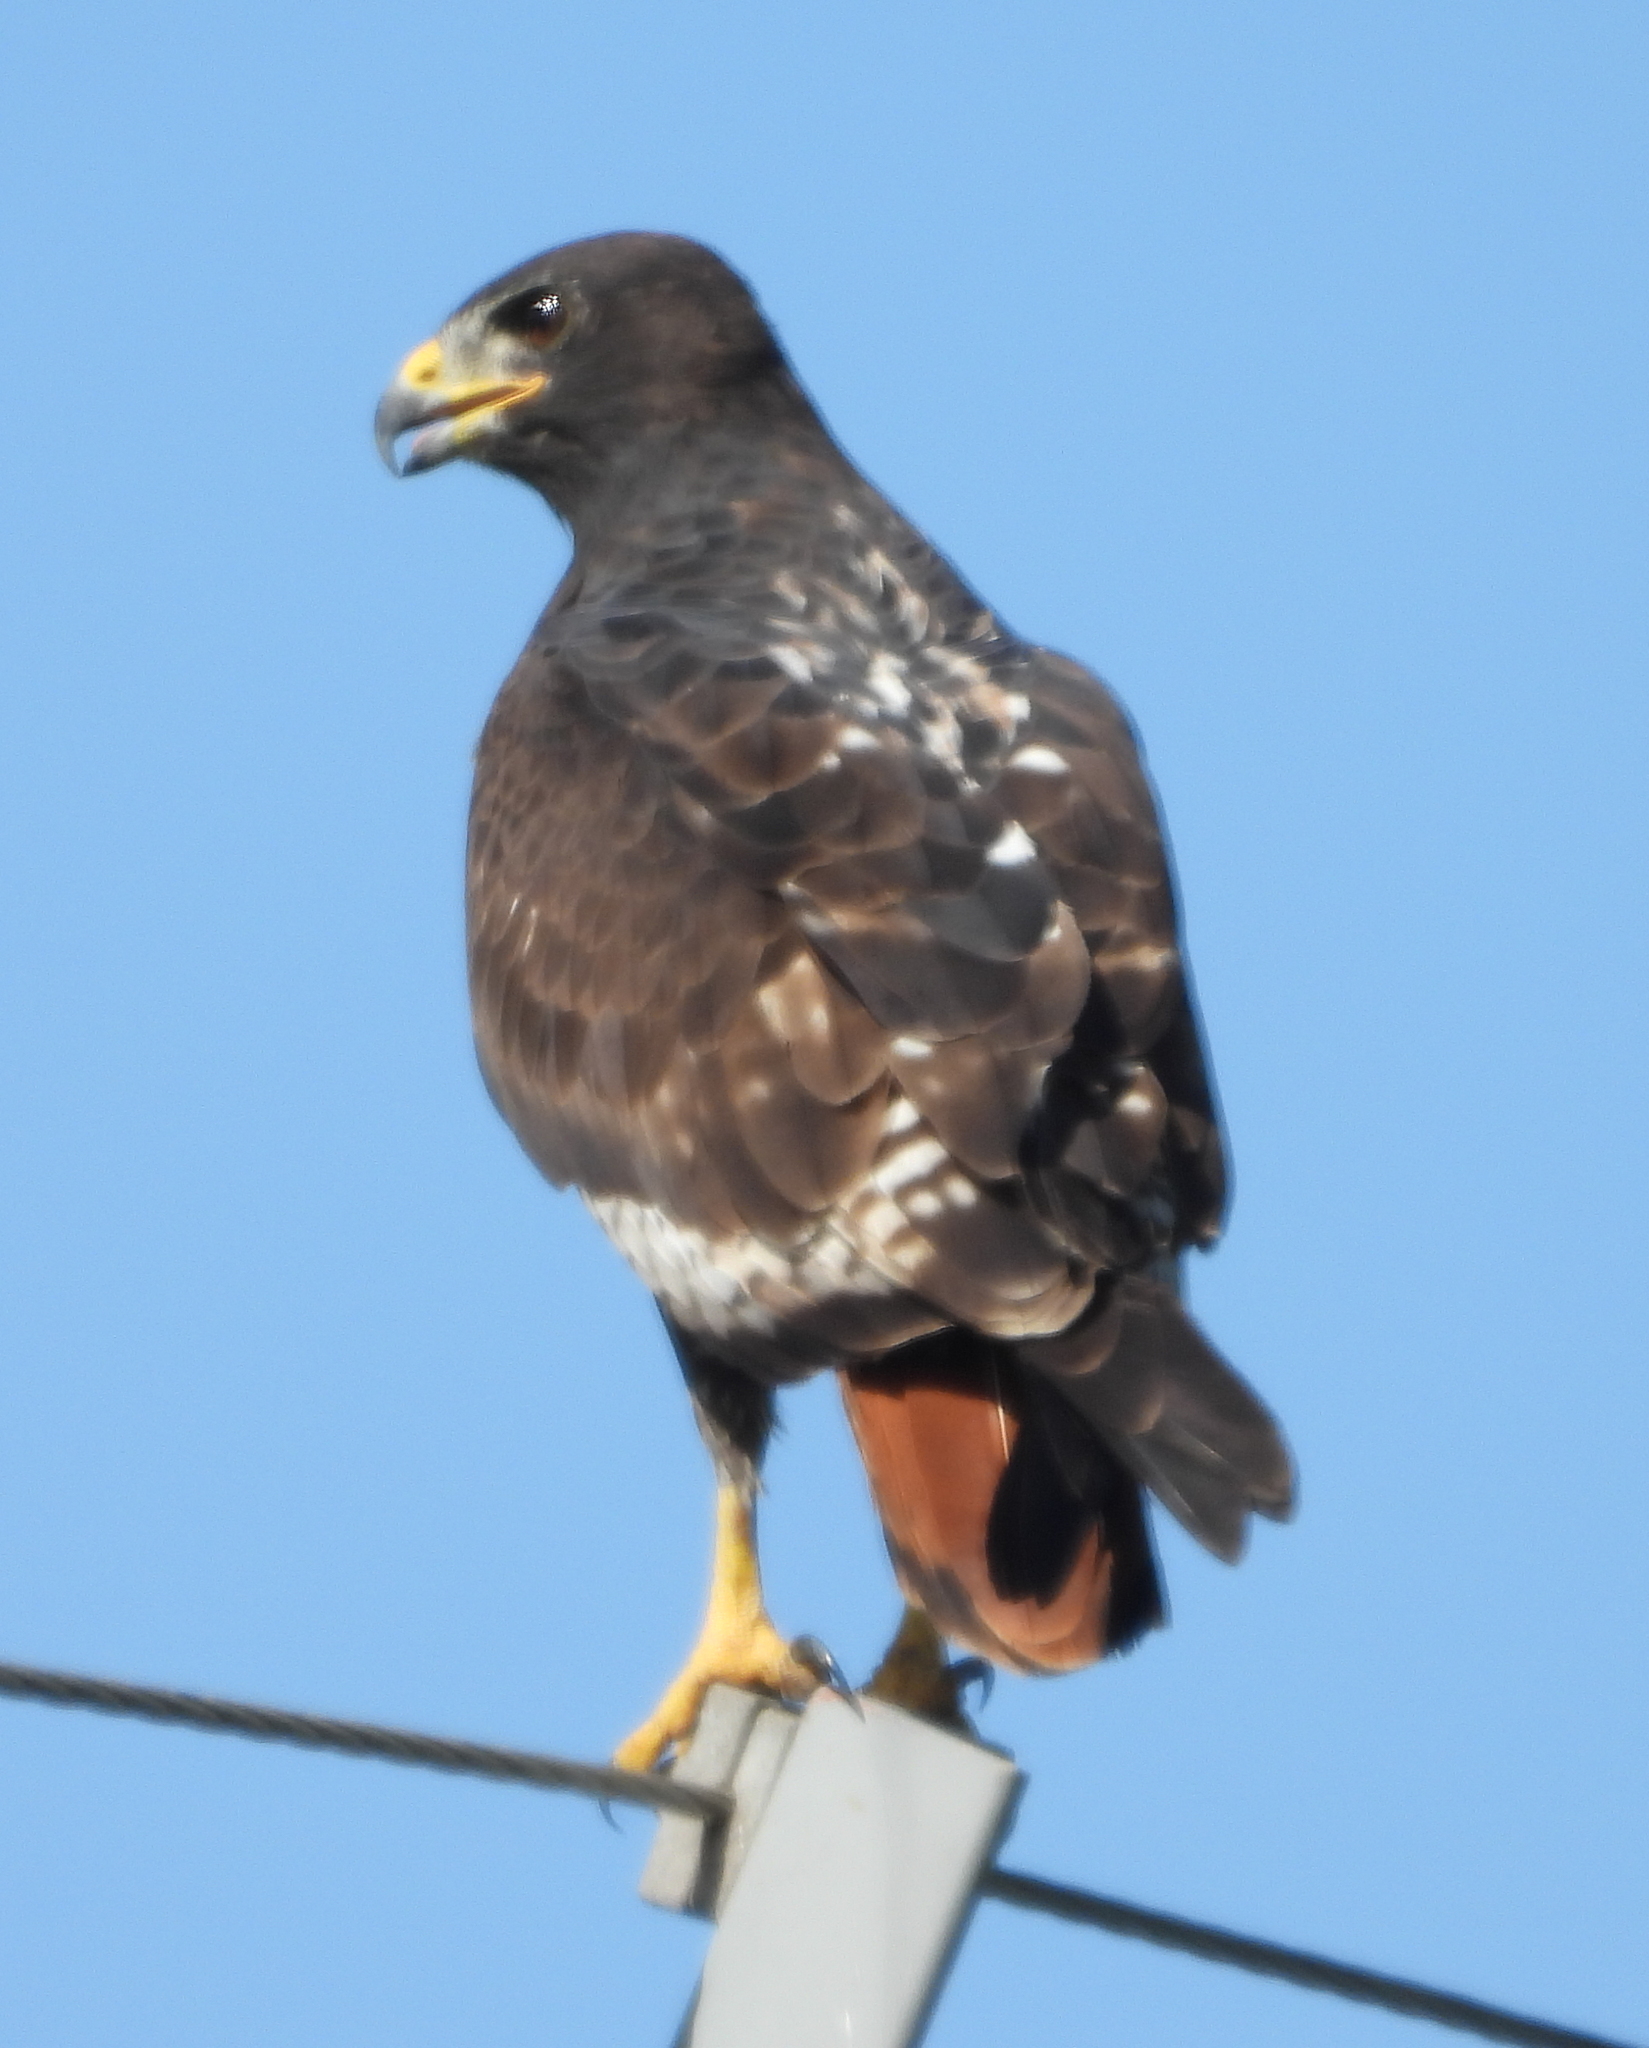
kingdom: Animalia
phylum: Chordata
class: Aves
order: Accipitriformes
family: Accipitridae
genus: Buteo
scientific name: Buteo rufofuscus
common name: Jackal buzzard
